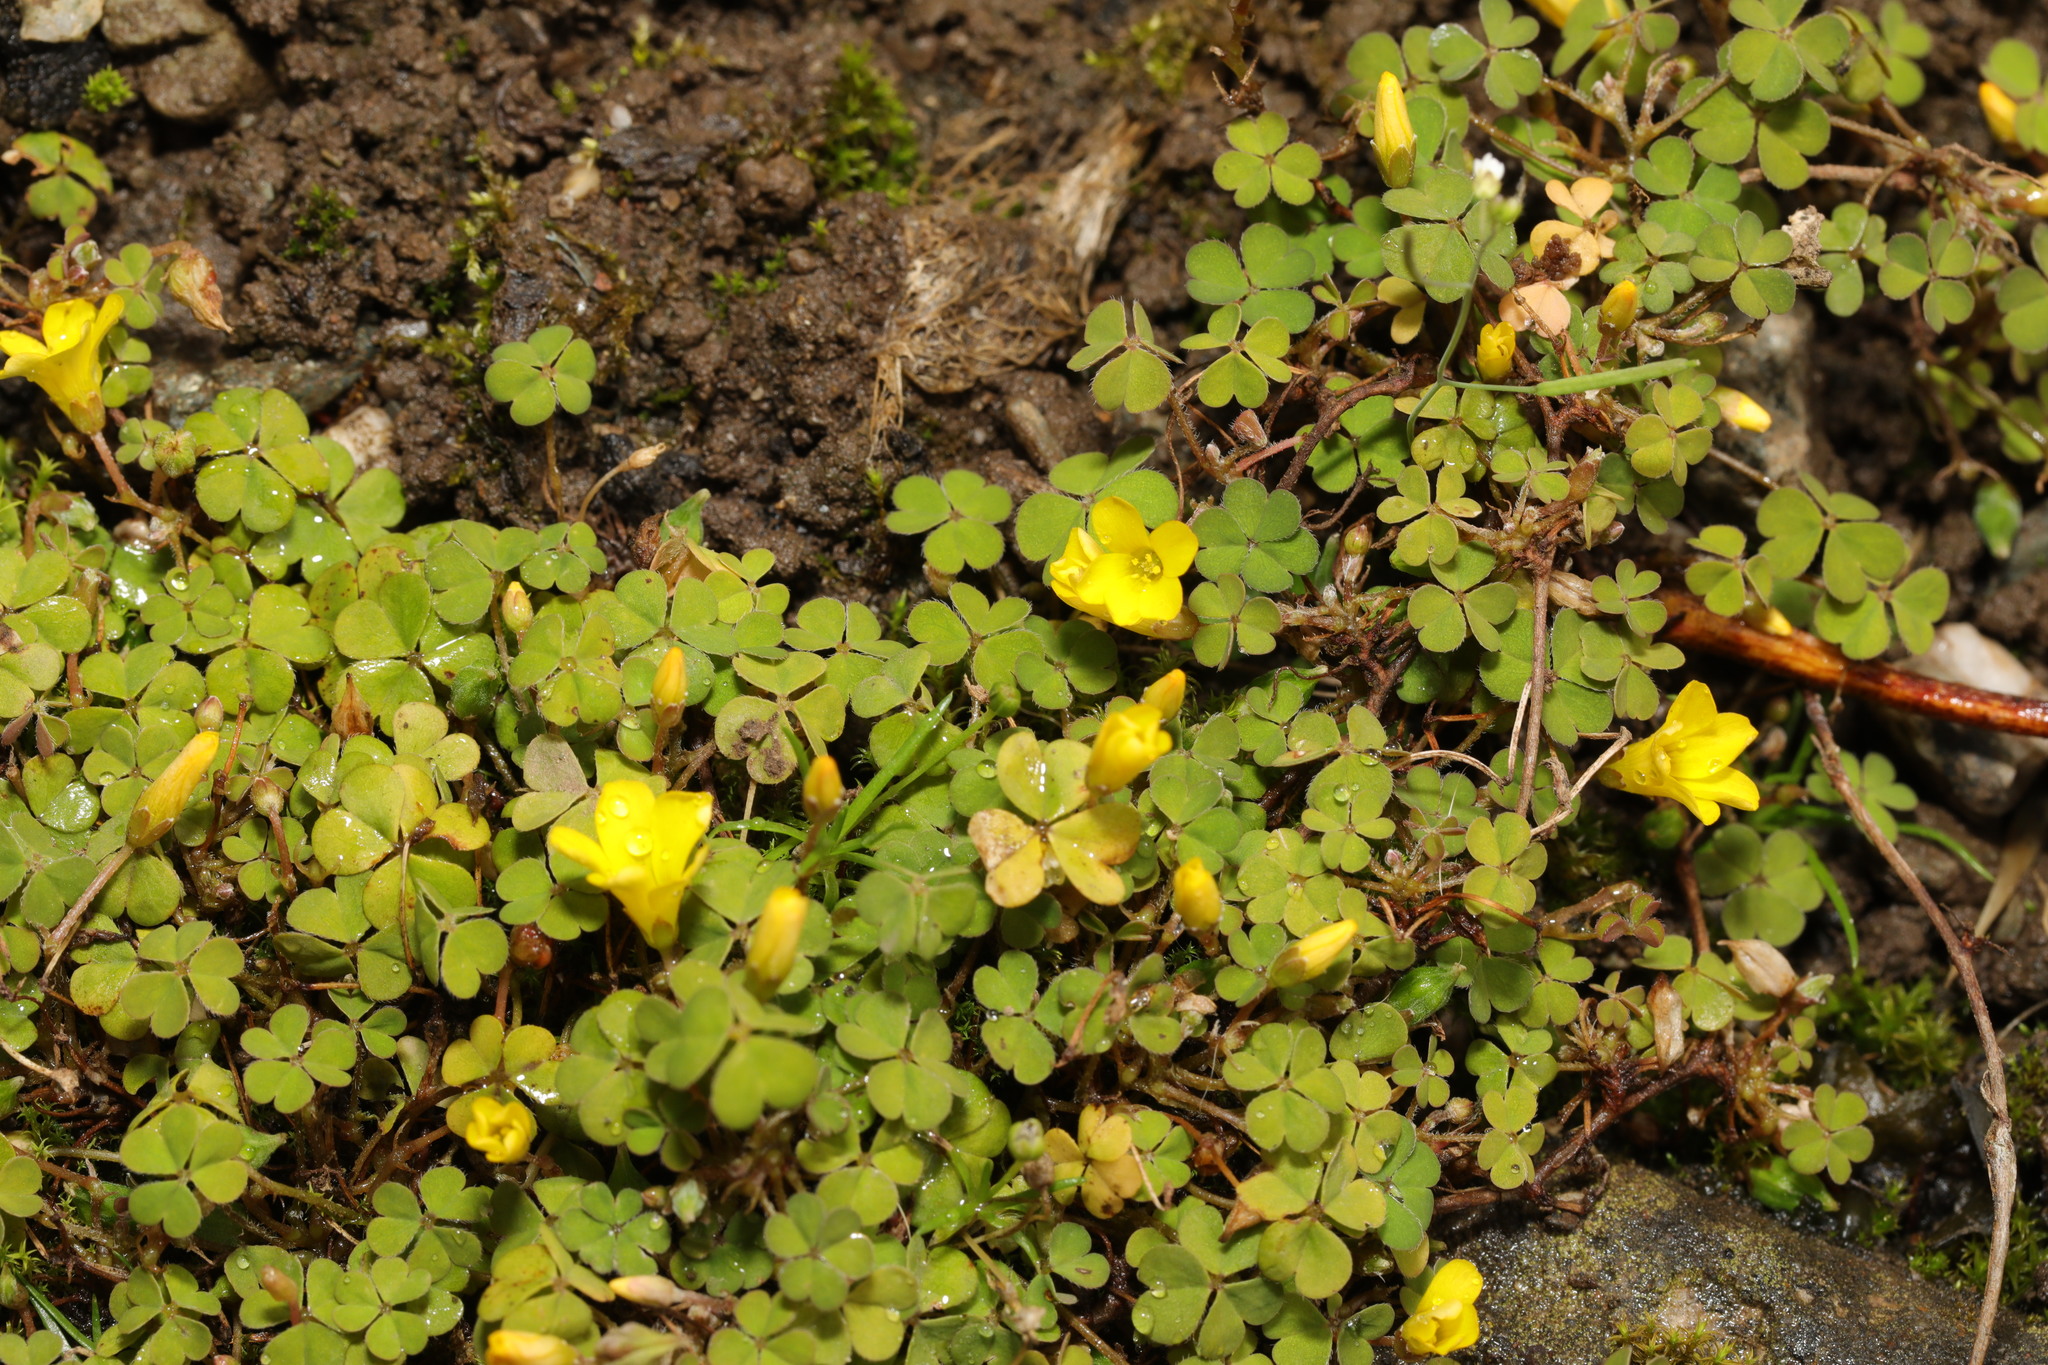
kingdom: Plantae
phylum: Tracheophyta
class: Magnoliopsida
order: Oxalidales
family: Oxalidaceae
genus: Oxalis
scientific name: Oxalis exilis
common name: Least yellow-sorrel
